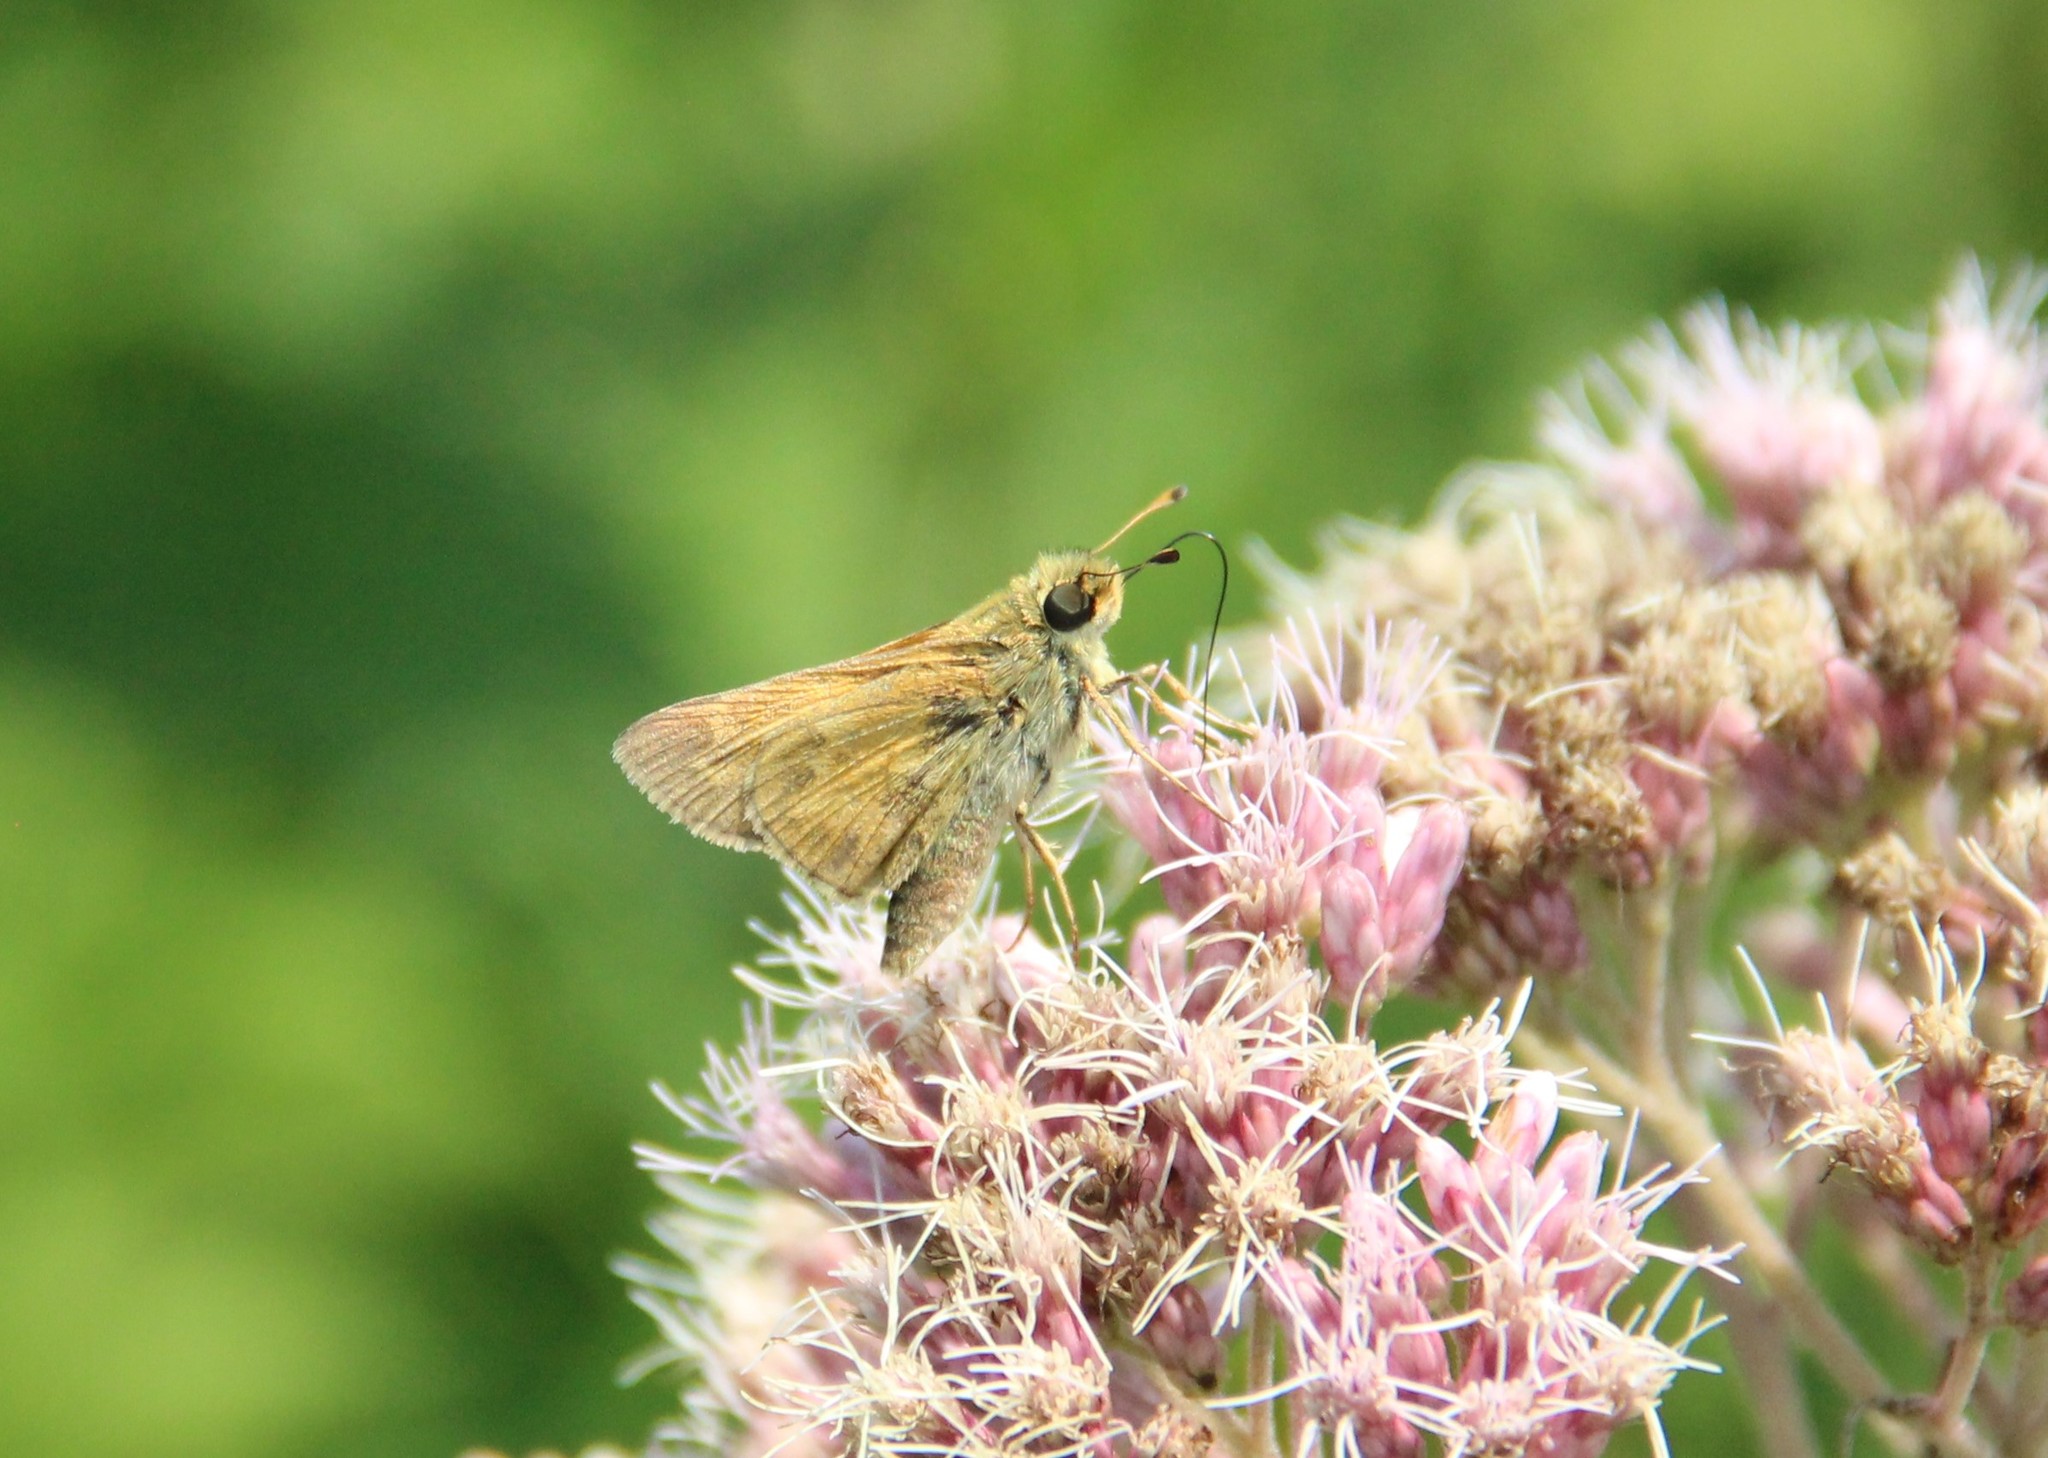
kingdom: Animalia
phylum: Arthropoda
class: Insecta
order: Lepidoptera
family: Hesperiidae
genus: Atalopedes
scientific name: Atalopedes
